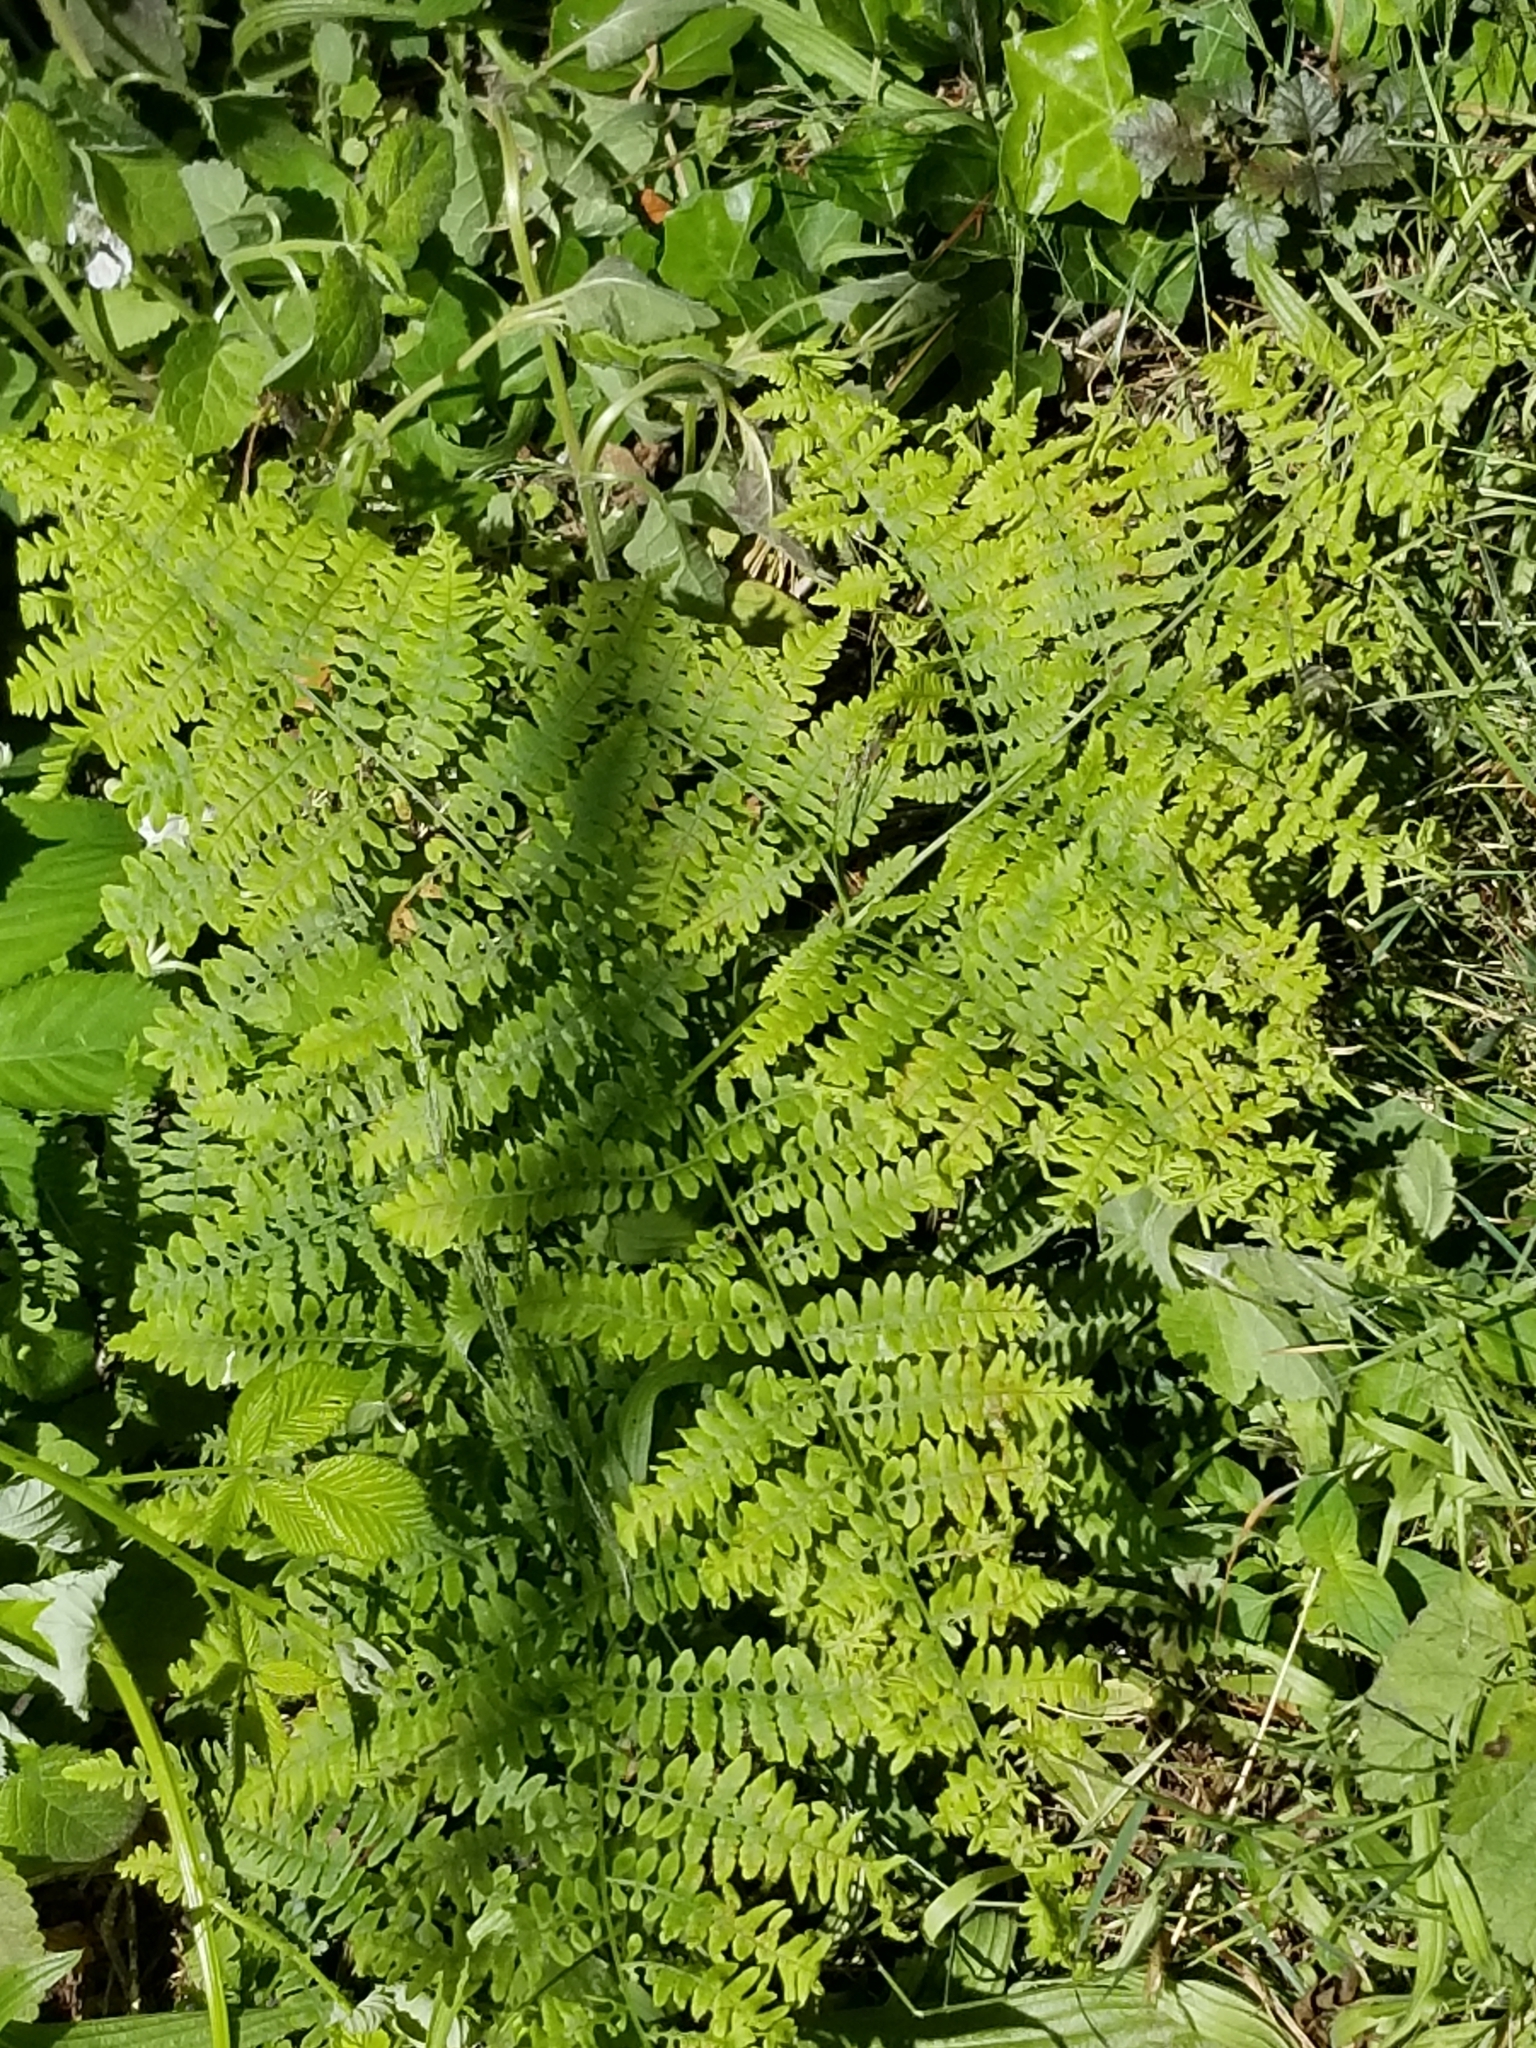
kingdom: Plantae
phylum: Tracheophyta
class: Polypodiopsida
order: Polypodiales
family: Dennstaedtiaceae
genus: Pteridium
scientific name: Pteridium aquilinum
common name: Bracken
